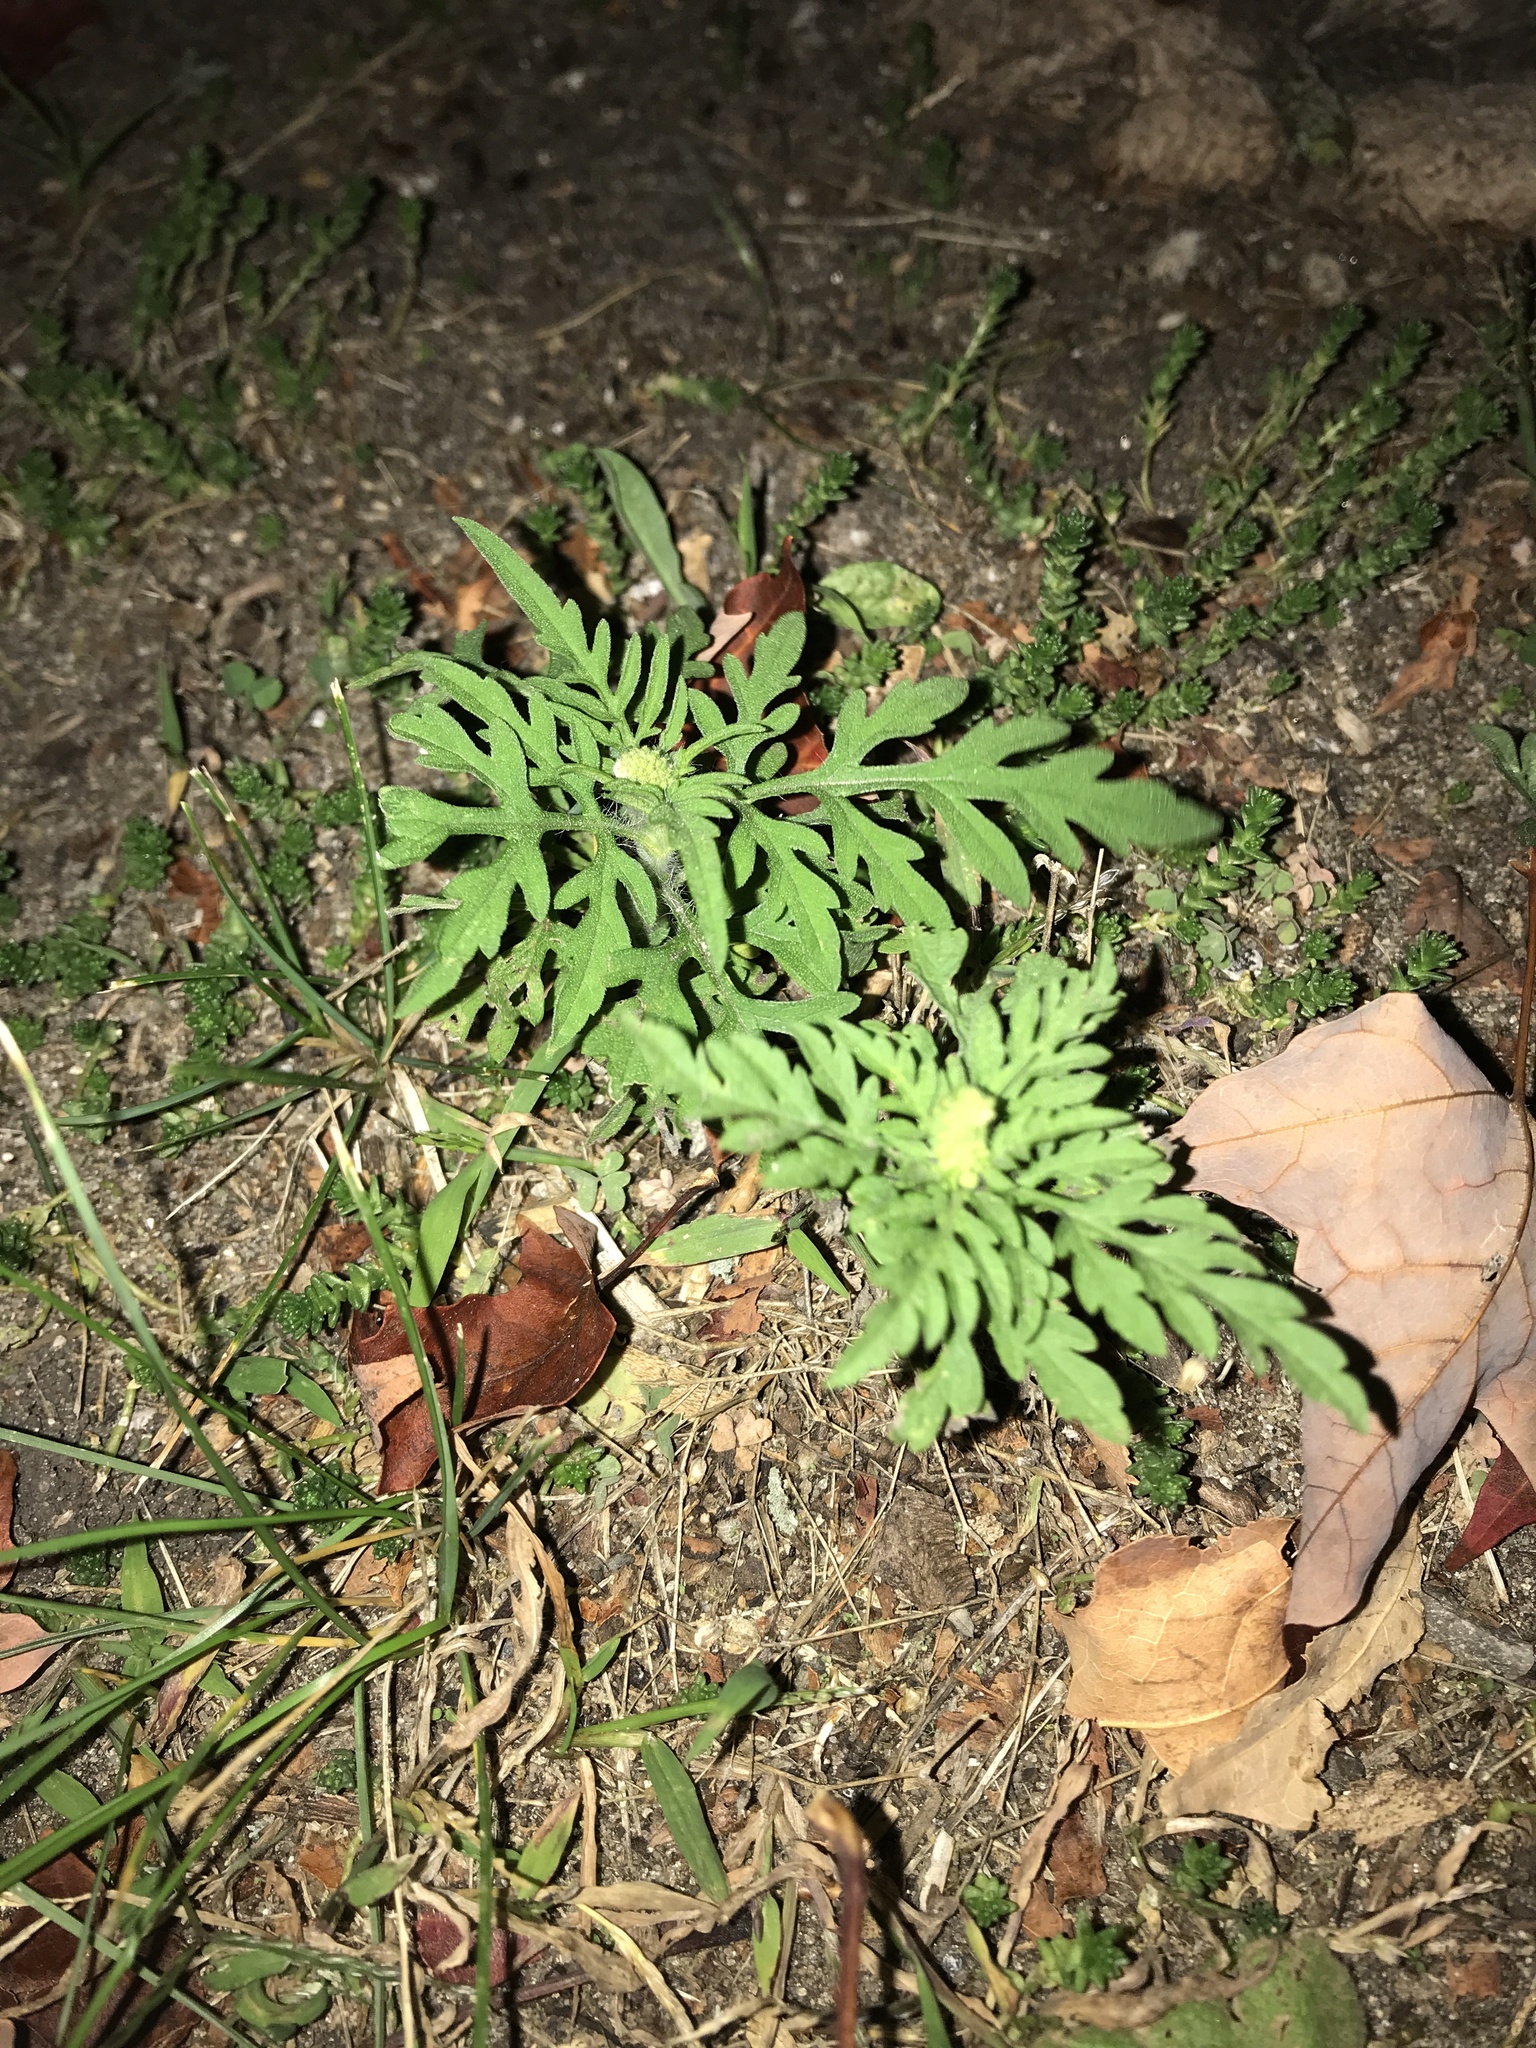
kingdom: Plantae
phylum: Tracheophyta
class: Magnoliopsida
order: Asterales
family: Asteraceae
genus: Ambrosia
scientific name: Ambrosia artemisiifolia
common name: Annual ragweed
